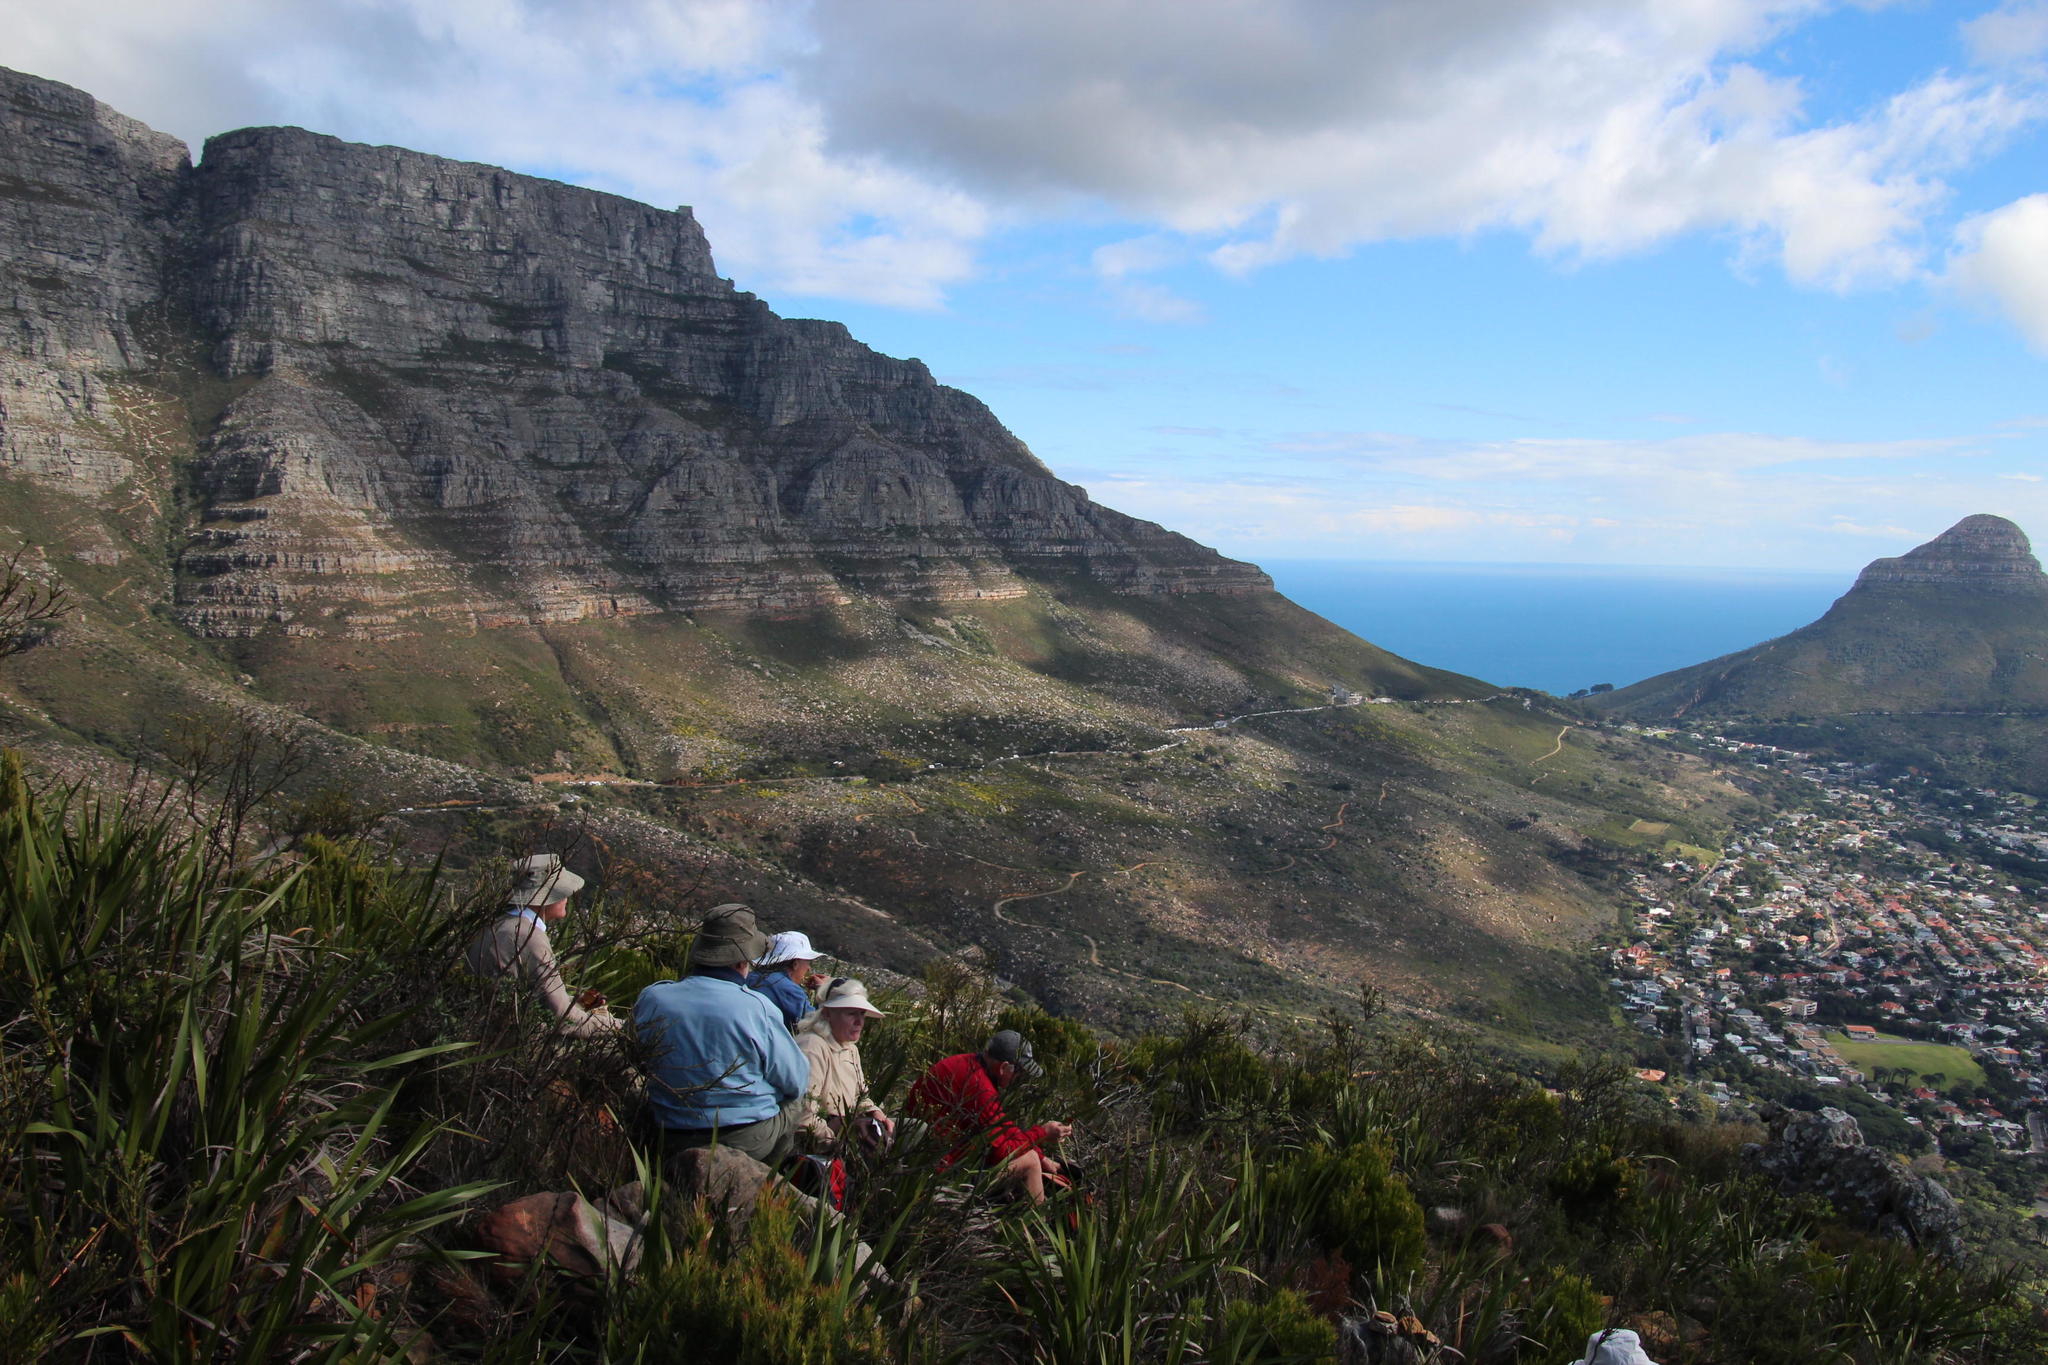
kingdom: Plantae
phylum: Tracheophyta
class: Magnoliopsida
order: Proteales
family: Proteaceae
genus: Leucadendron
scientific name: Leucadendron laureolum
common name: Golden sunshinebush
